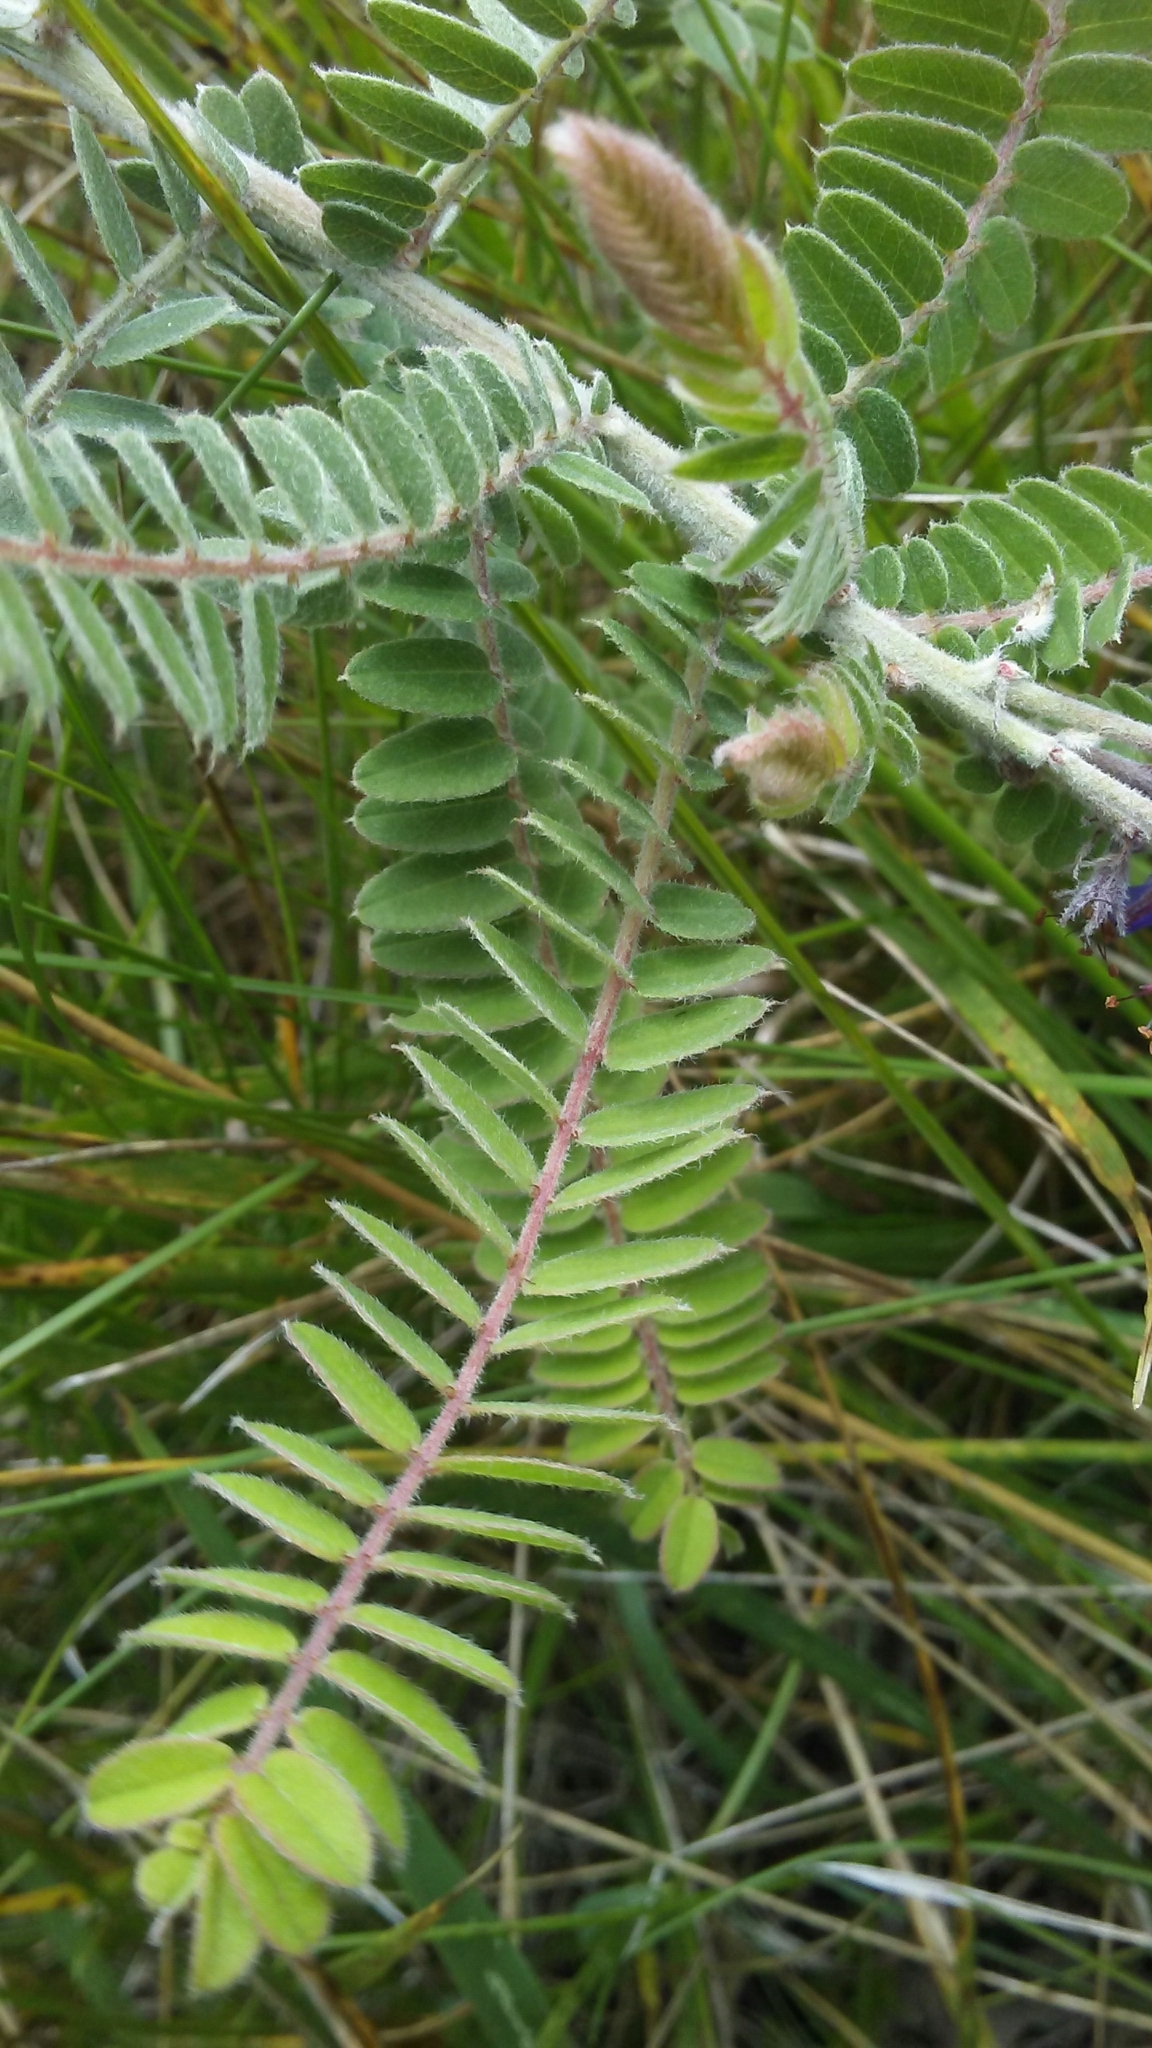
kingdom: Plantae
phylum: Tracheophyta
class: Magnoliopsida
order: Fabales
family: Fabaceae
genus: Amorpha
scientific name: Amorpha canescens
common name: Leadplant
